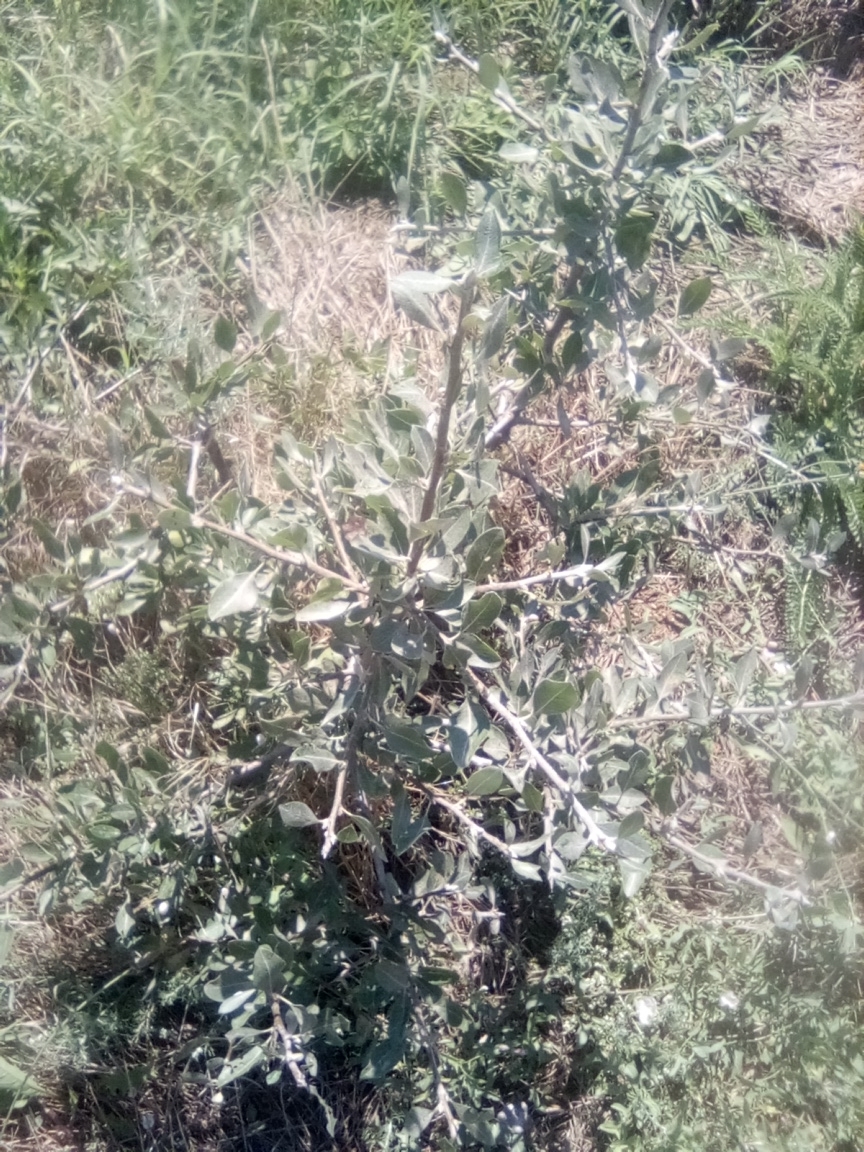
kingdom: Plantae
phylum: Tracheophyta
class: Magnoliopsida
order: Rosales
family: Rosaceae
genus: Pyrus
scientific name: Pyrus elaeagrifolia
